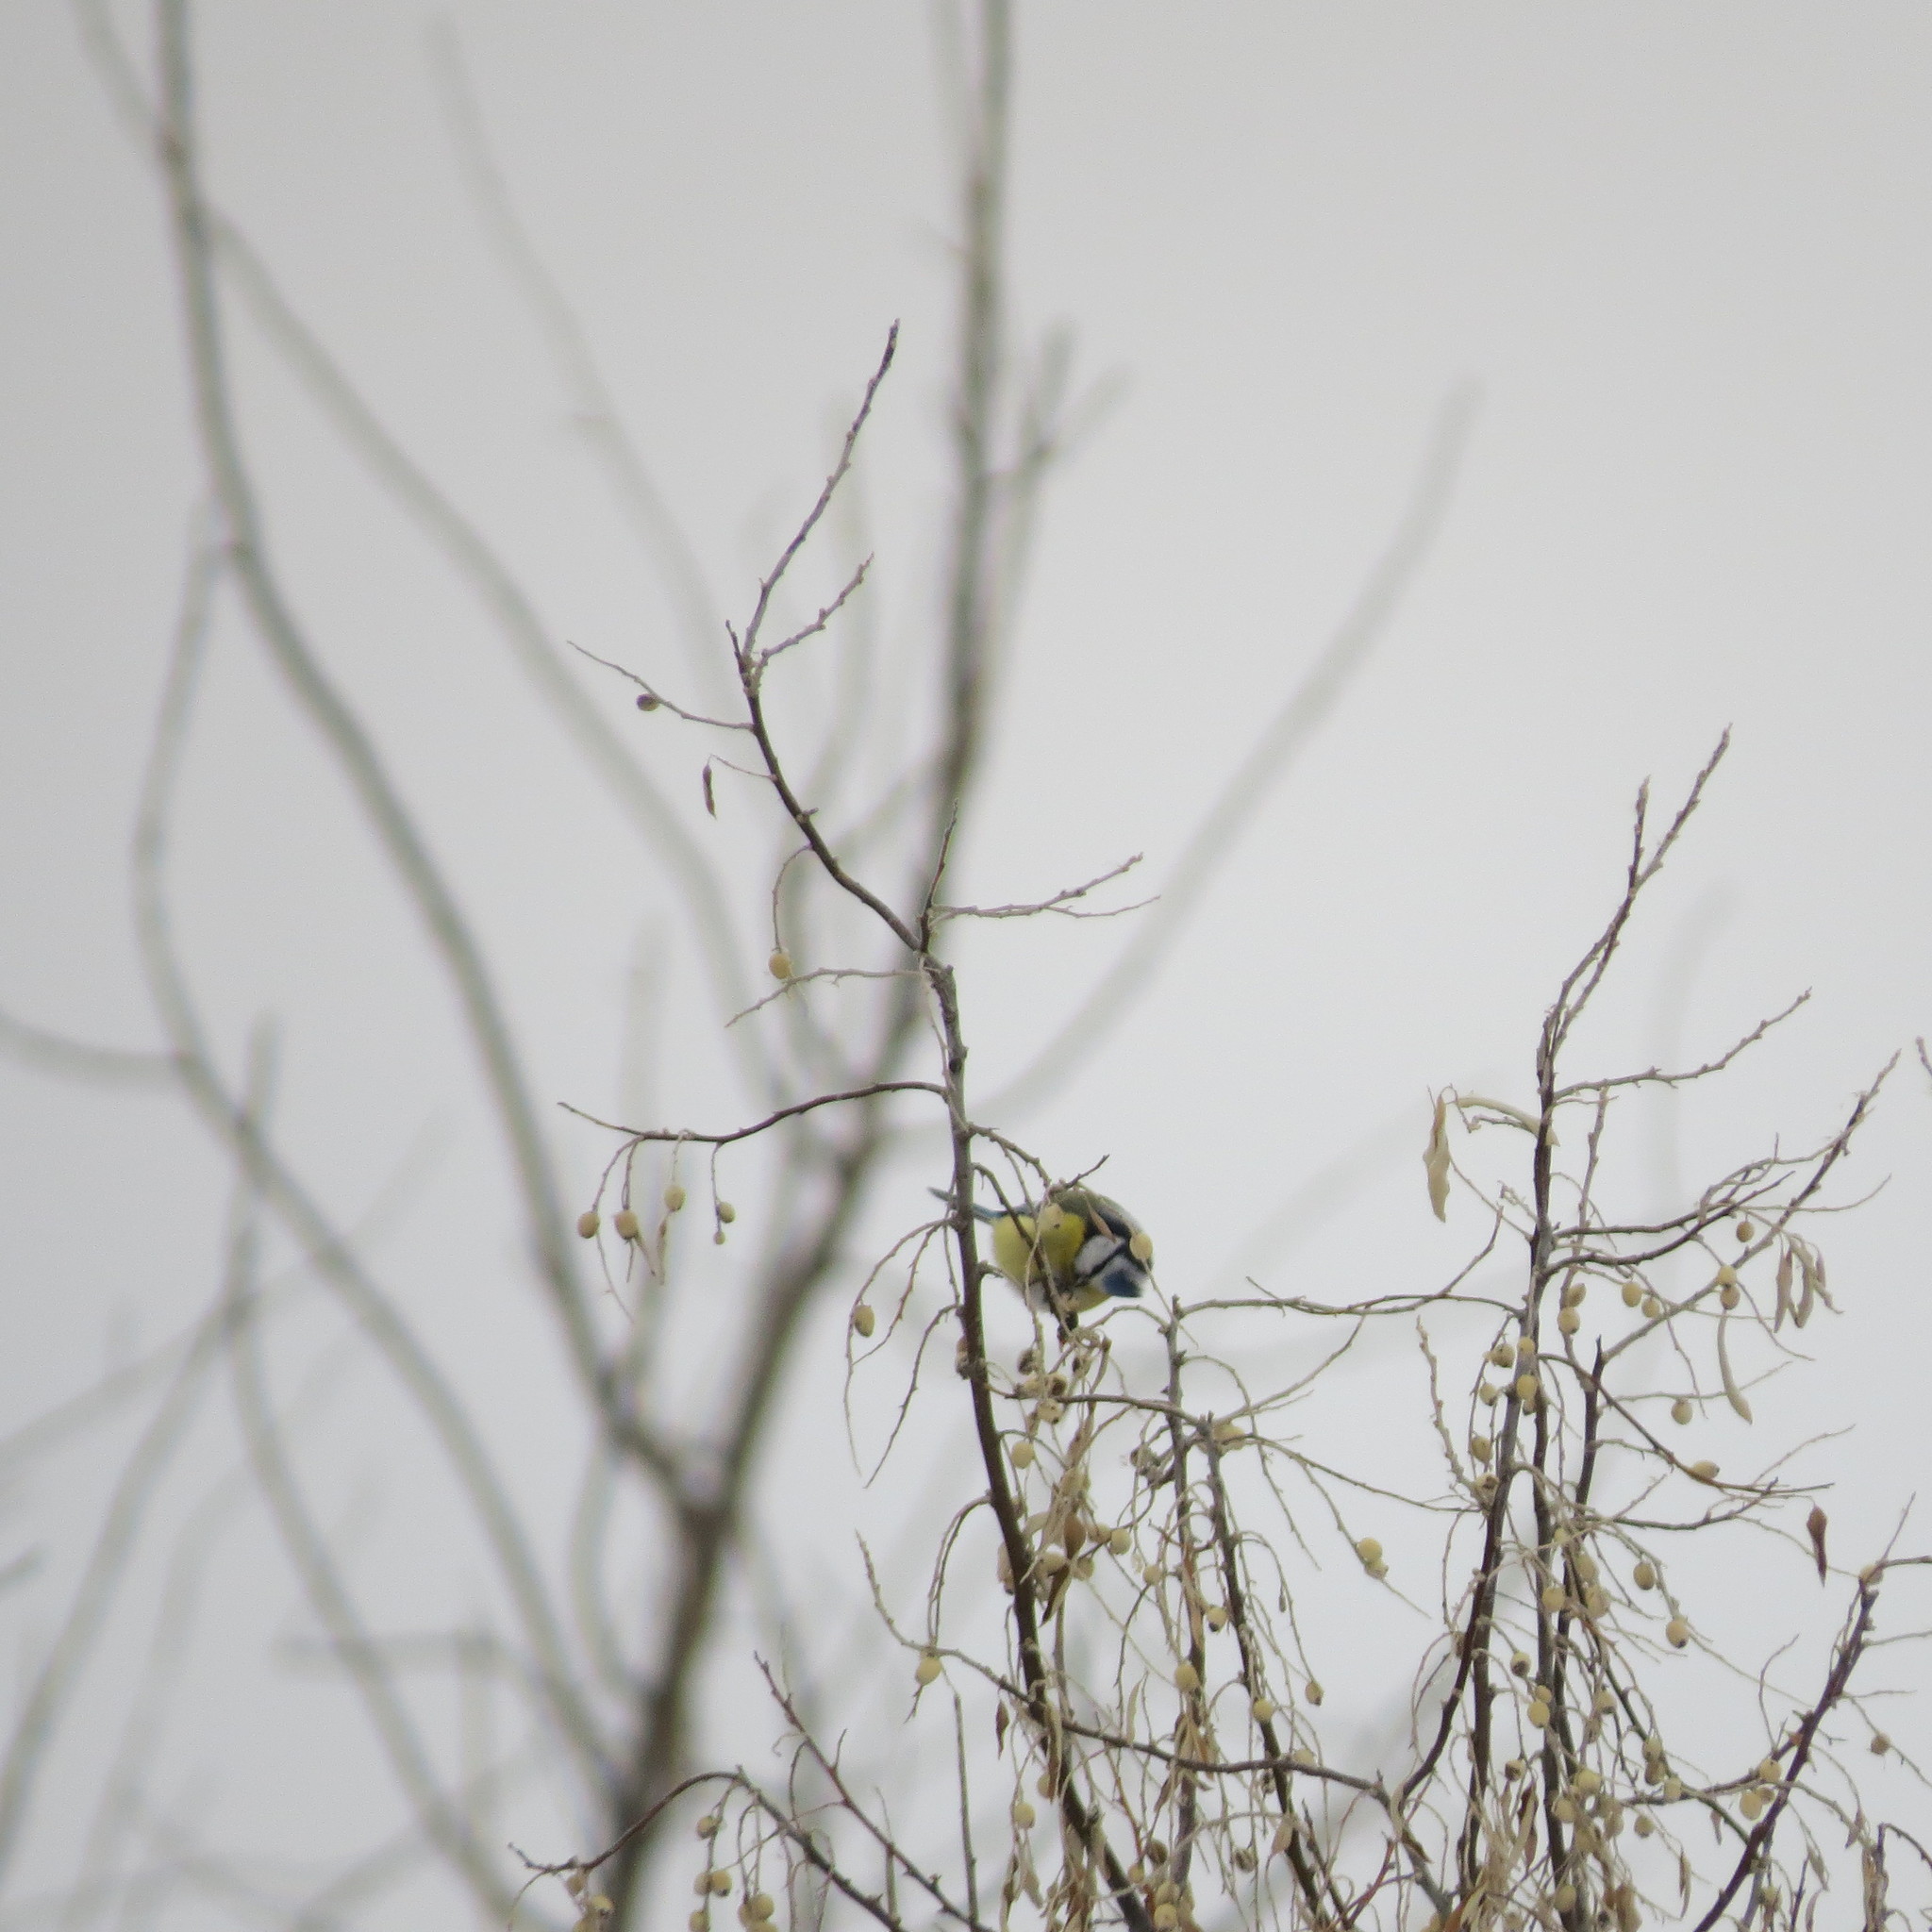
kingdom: Animalia
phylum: Chordata
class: Aves
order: Passeriformes
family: Paridae
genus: Cyanistes
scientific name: Cyanistes caeruleus
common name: Eurasian blue tit
